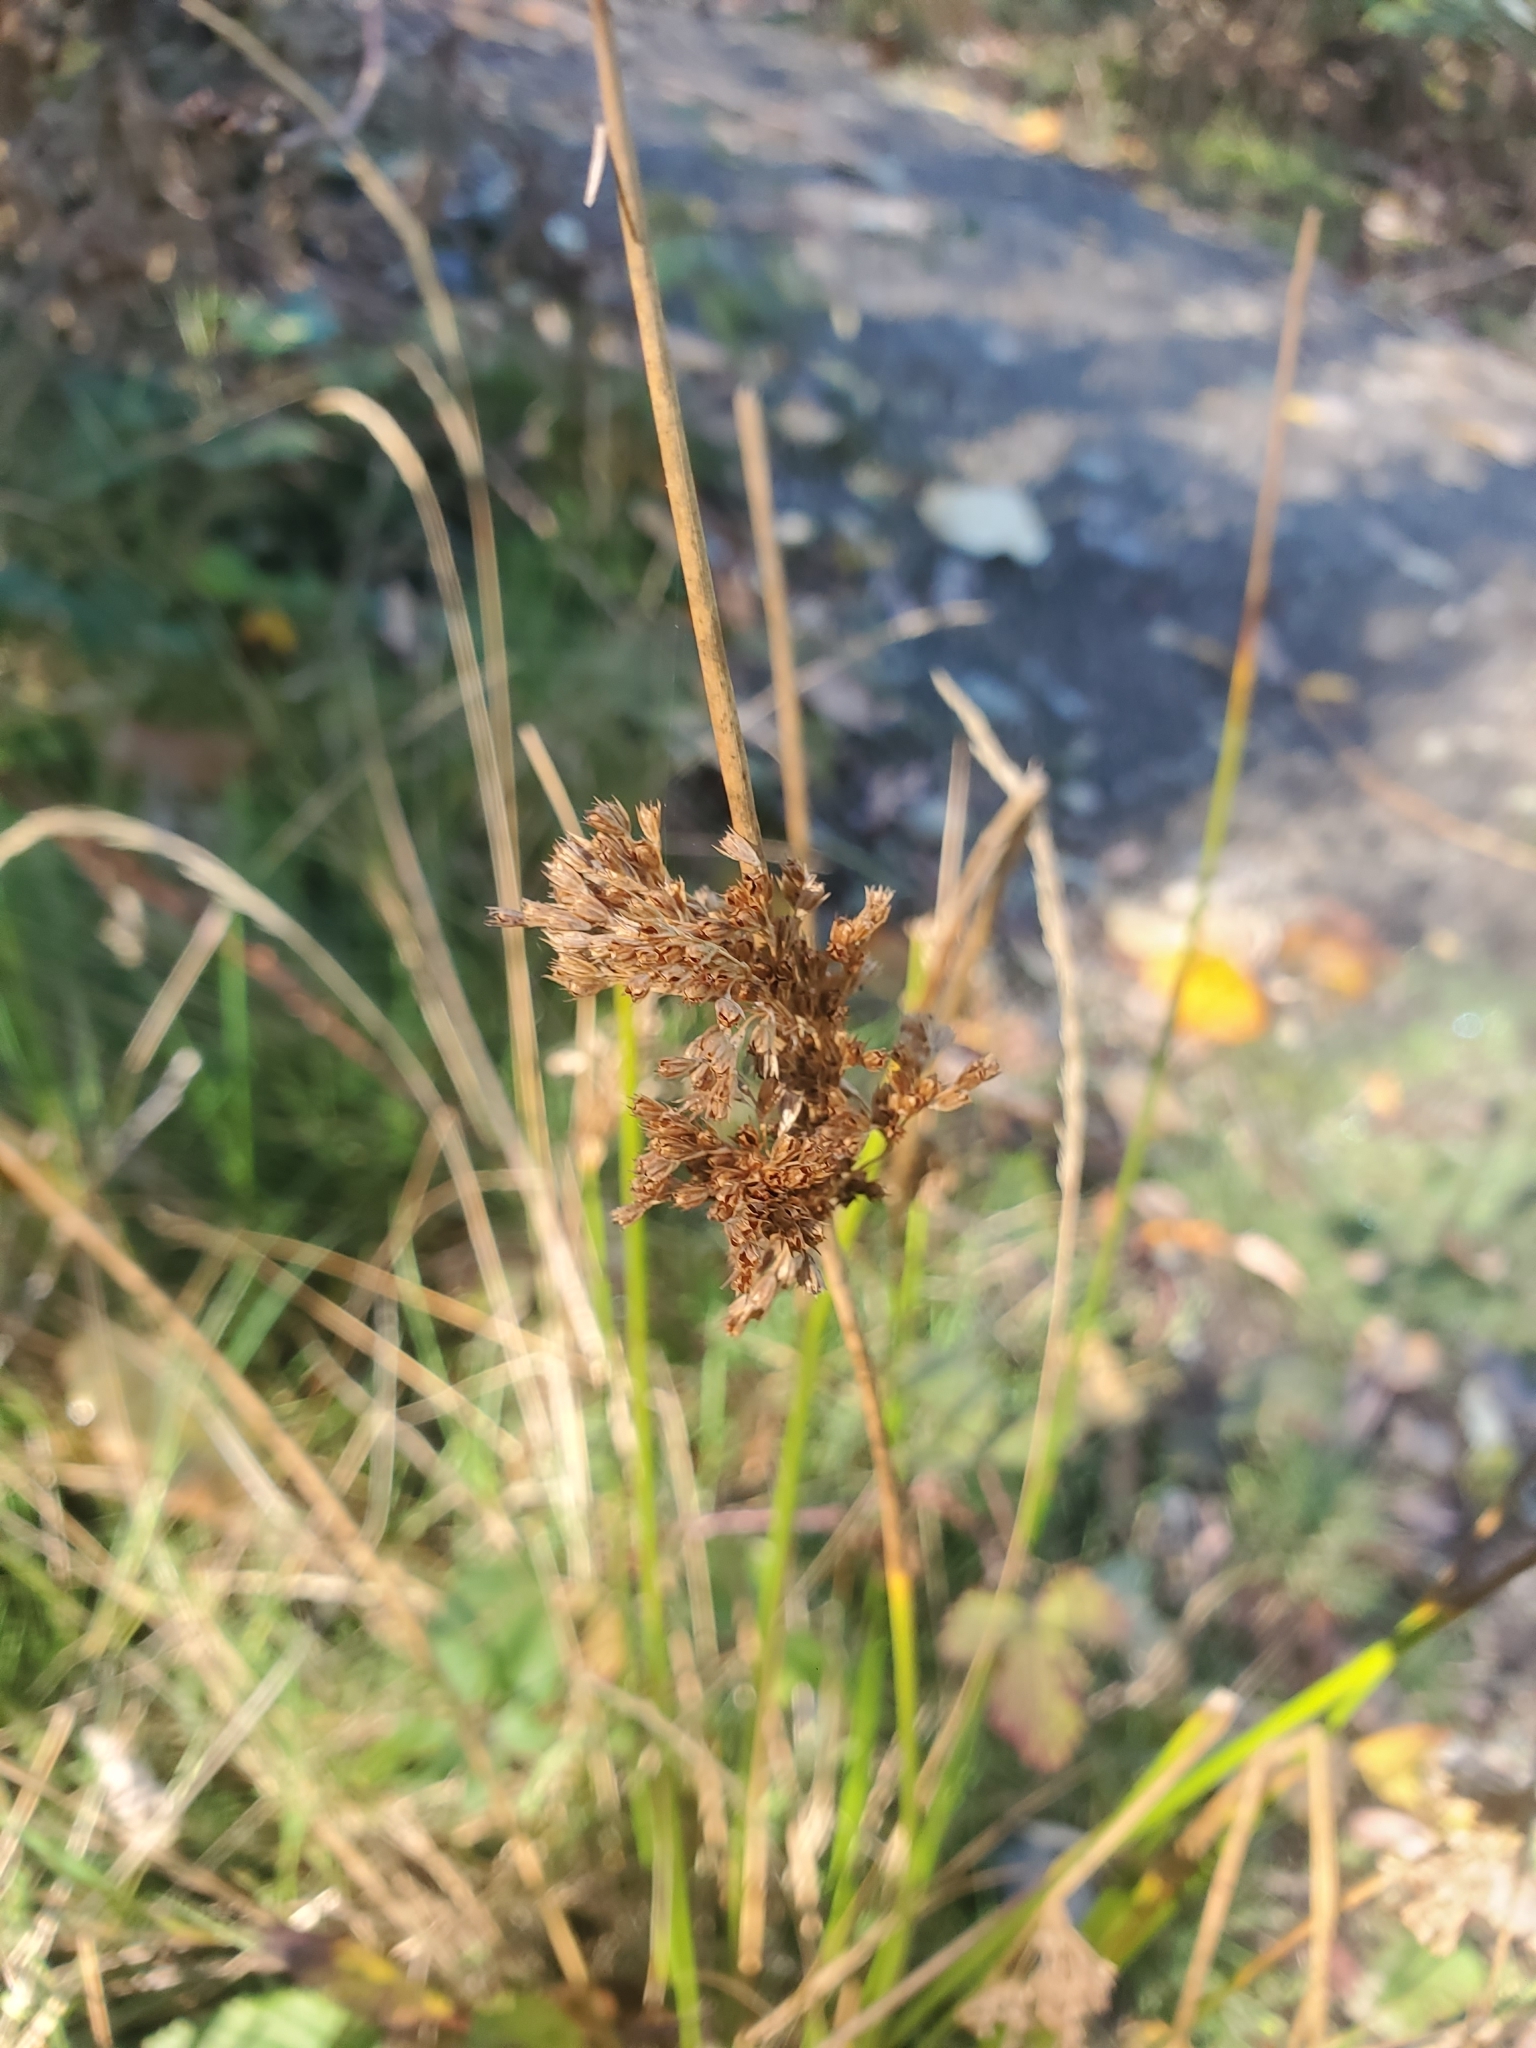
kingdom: Plantae
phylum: Tracheophyta
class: Liliopsida
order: Poales
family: Juncaceae
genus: Juncus
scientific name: Juncus effusus
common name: Soft rush
